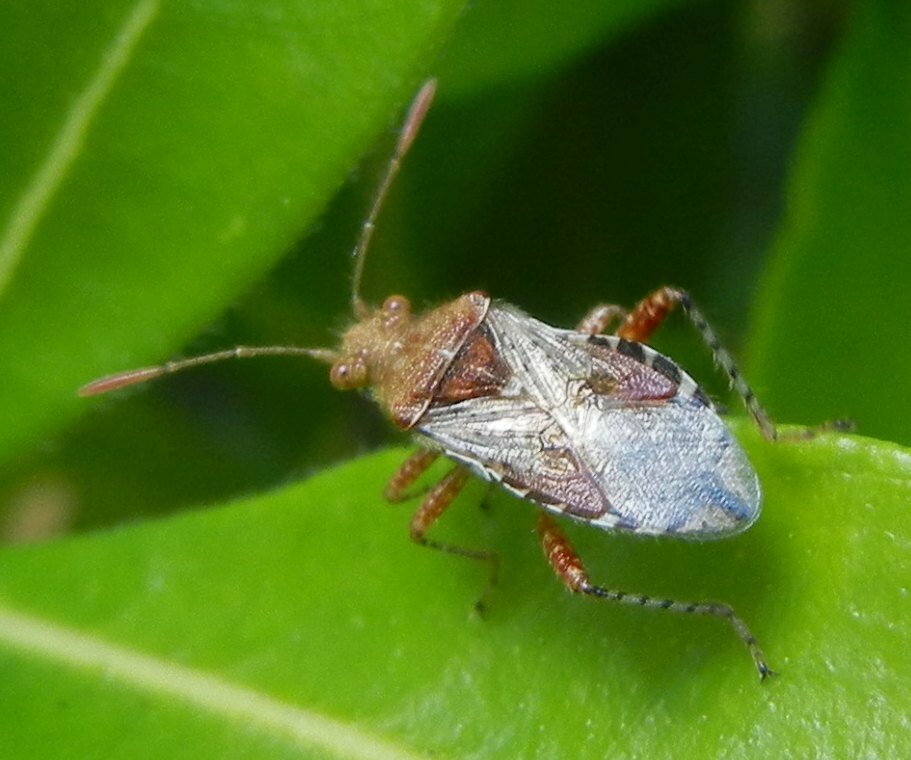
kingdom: Animalia
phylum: Arthropoda
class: Insecta
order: Hemiptera
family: Rhopalidae
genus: Rhopalus
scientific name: Rhopalus subrufus
